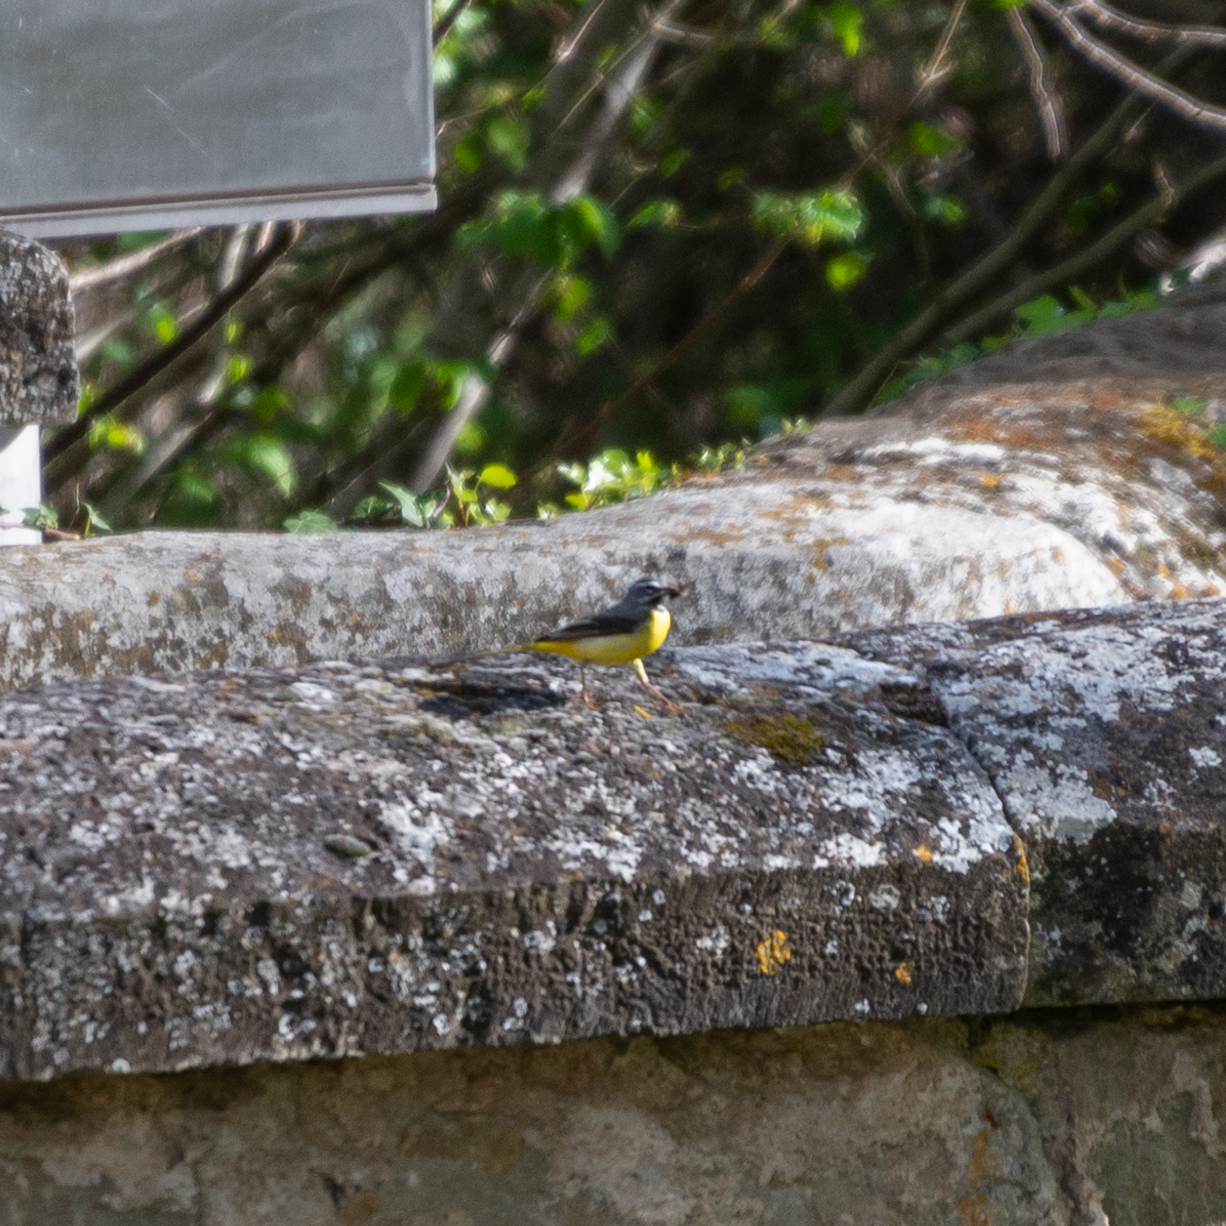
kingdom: Animalia
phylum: Chordata
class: Aves
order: Passeriformes
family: Motacillidae
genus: Motacilla
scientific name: Motacilla cinerea
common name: Grey wagtail
